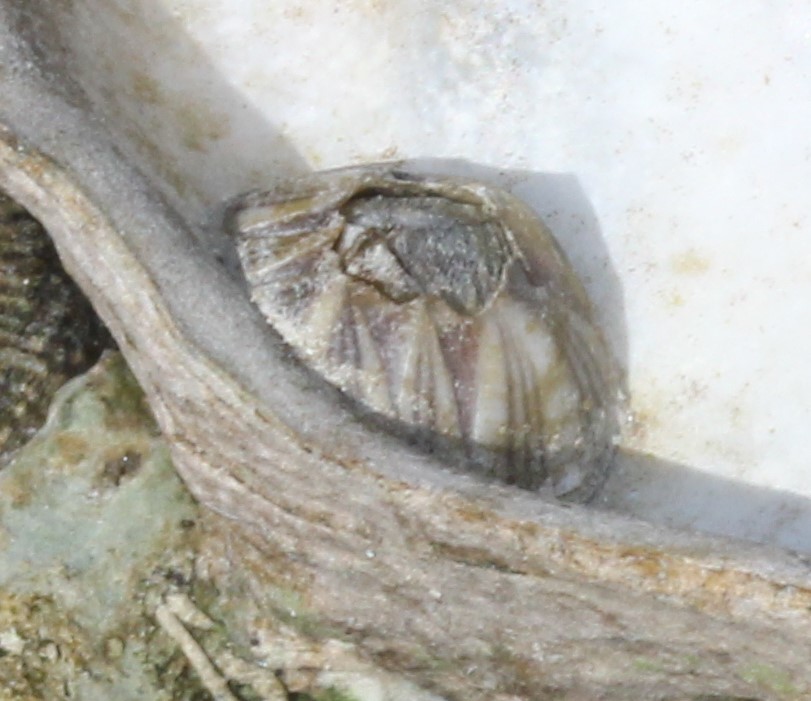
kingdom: Animalia
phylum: Arthropoda
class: Maxillopoda
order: Sessilia
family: Balanidae
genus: Amphibalanus
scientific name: Amphibalanus amphitrite
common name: Striped acorn barnacle
